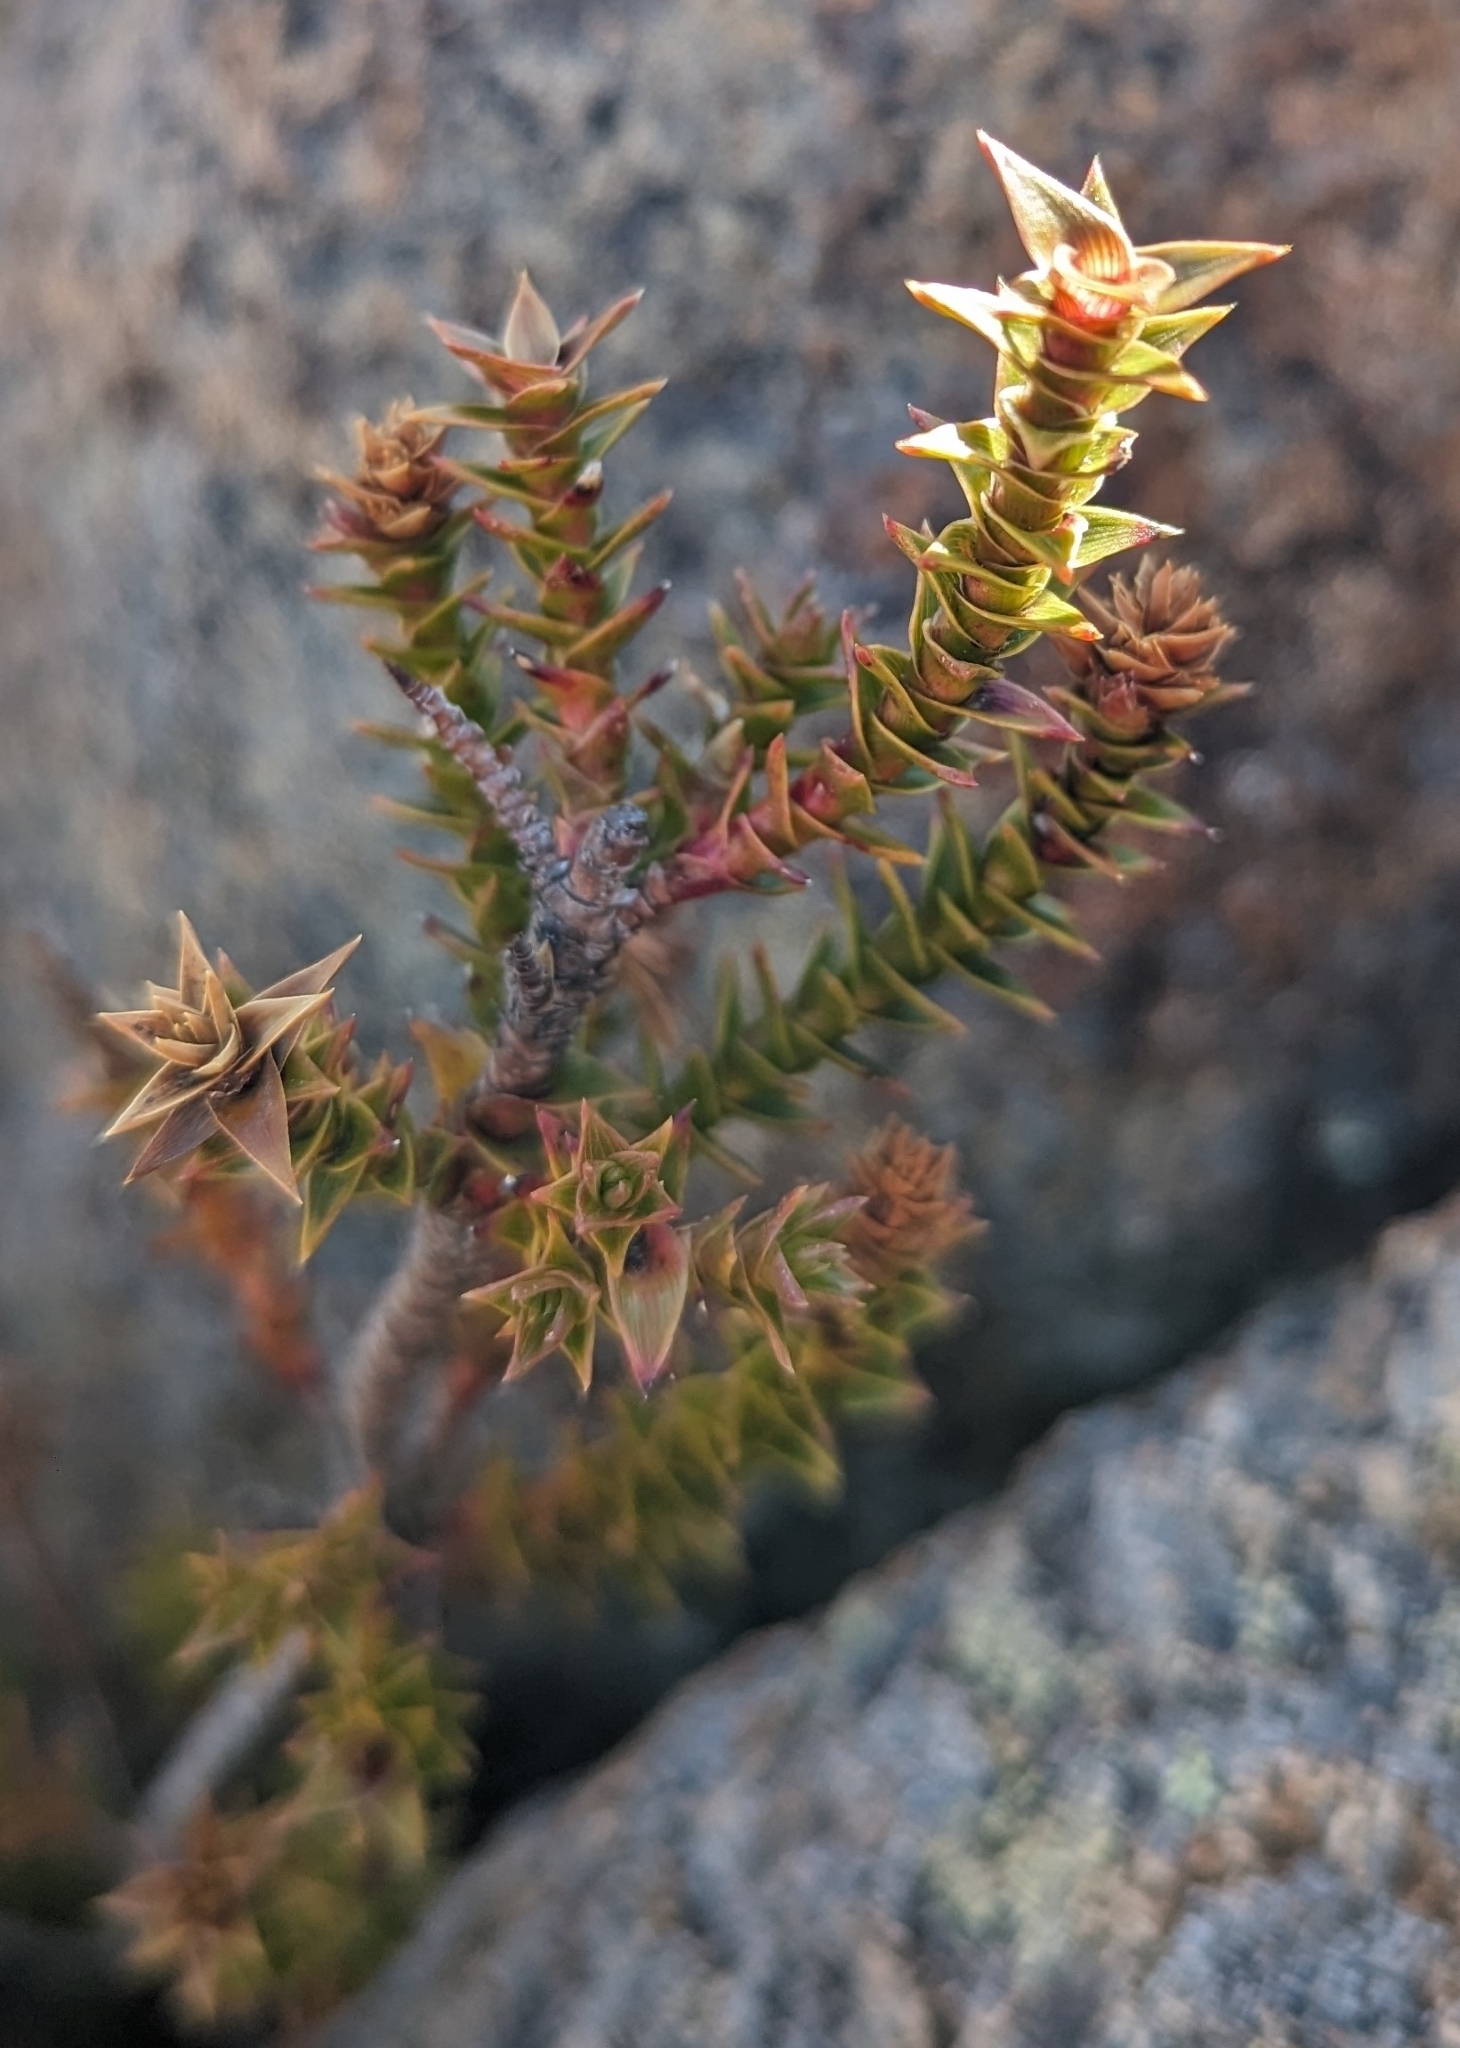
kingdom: Plantae
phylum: Tracheophyta
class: Magnoliopsida
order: Ericales
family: Ericaceae
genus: Dracophyllum
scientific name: Dracophyllum sprengelioides
